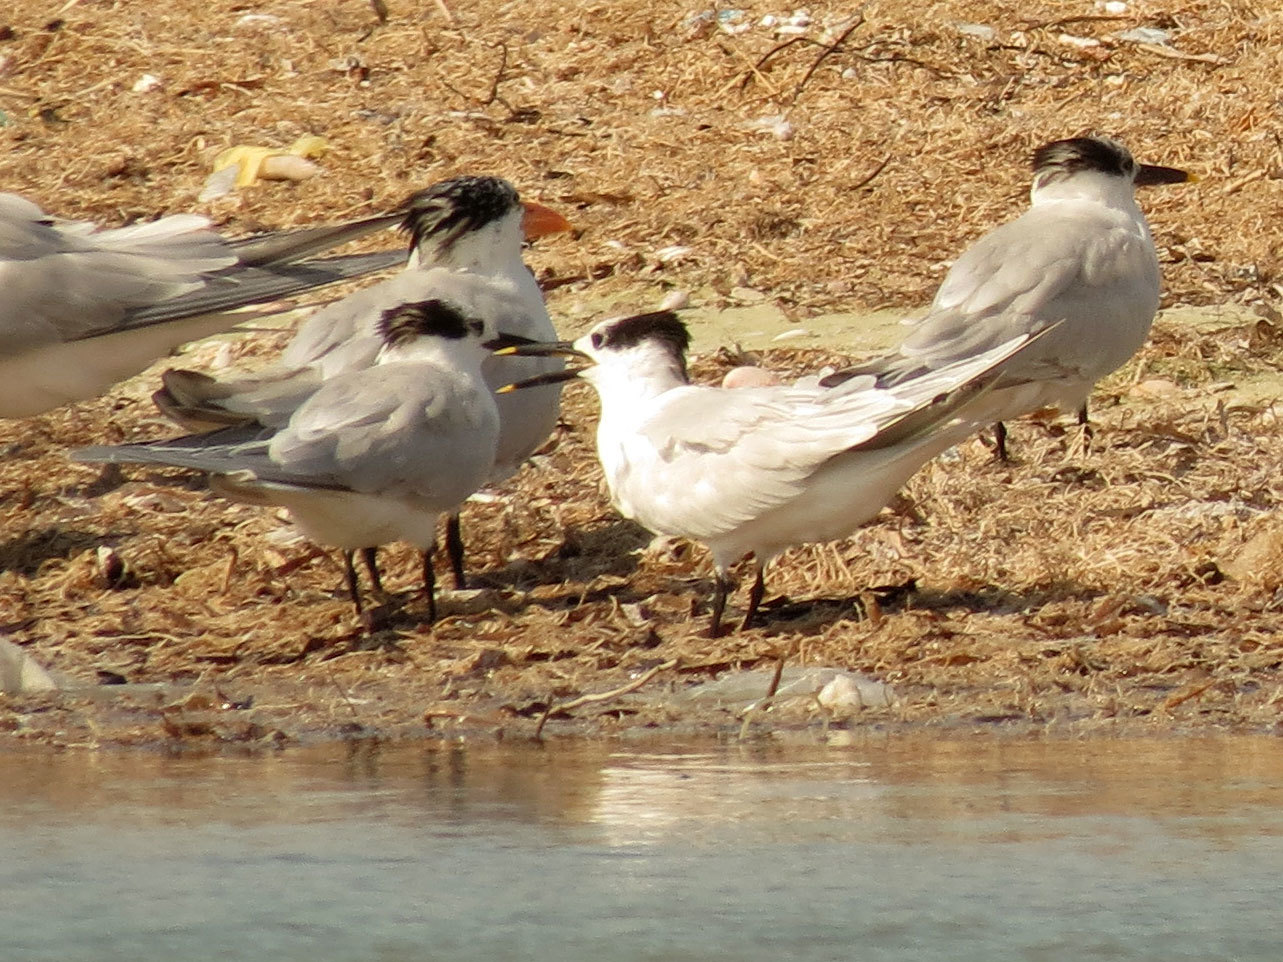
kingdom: Animalia
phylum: Chordata
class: Aves
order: Charadriiformes
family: Laridae
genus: Thalasseus
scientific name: Thalasseus sandvicensis
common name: Sandwich tern
